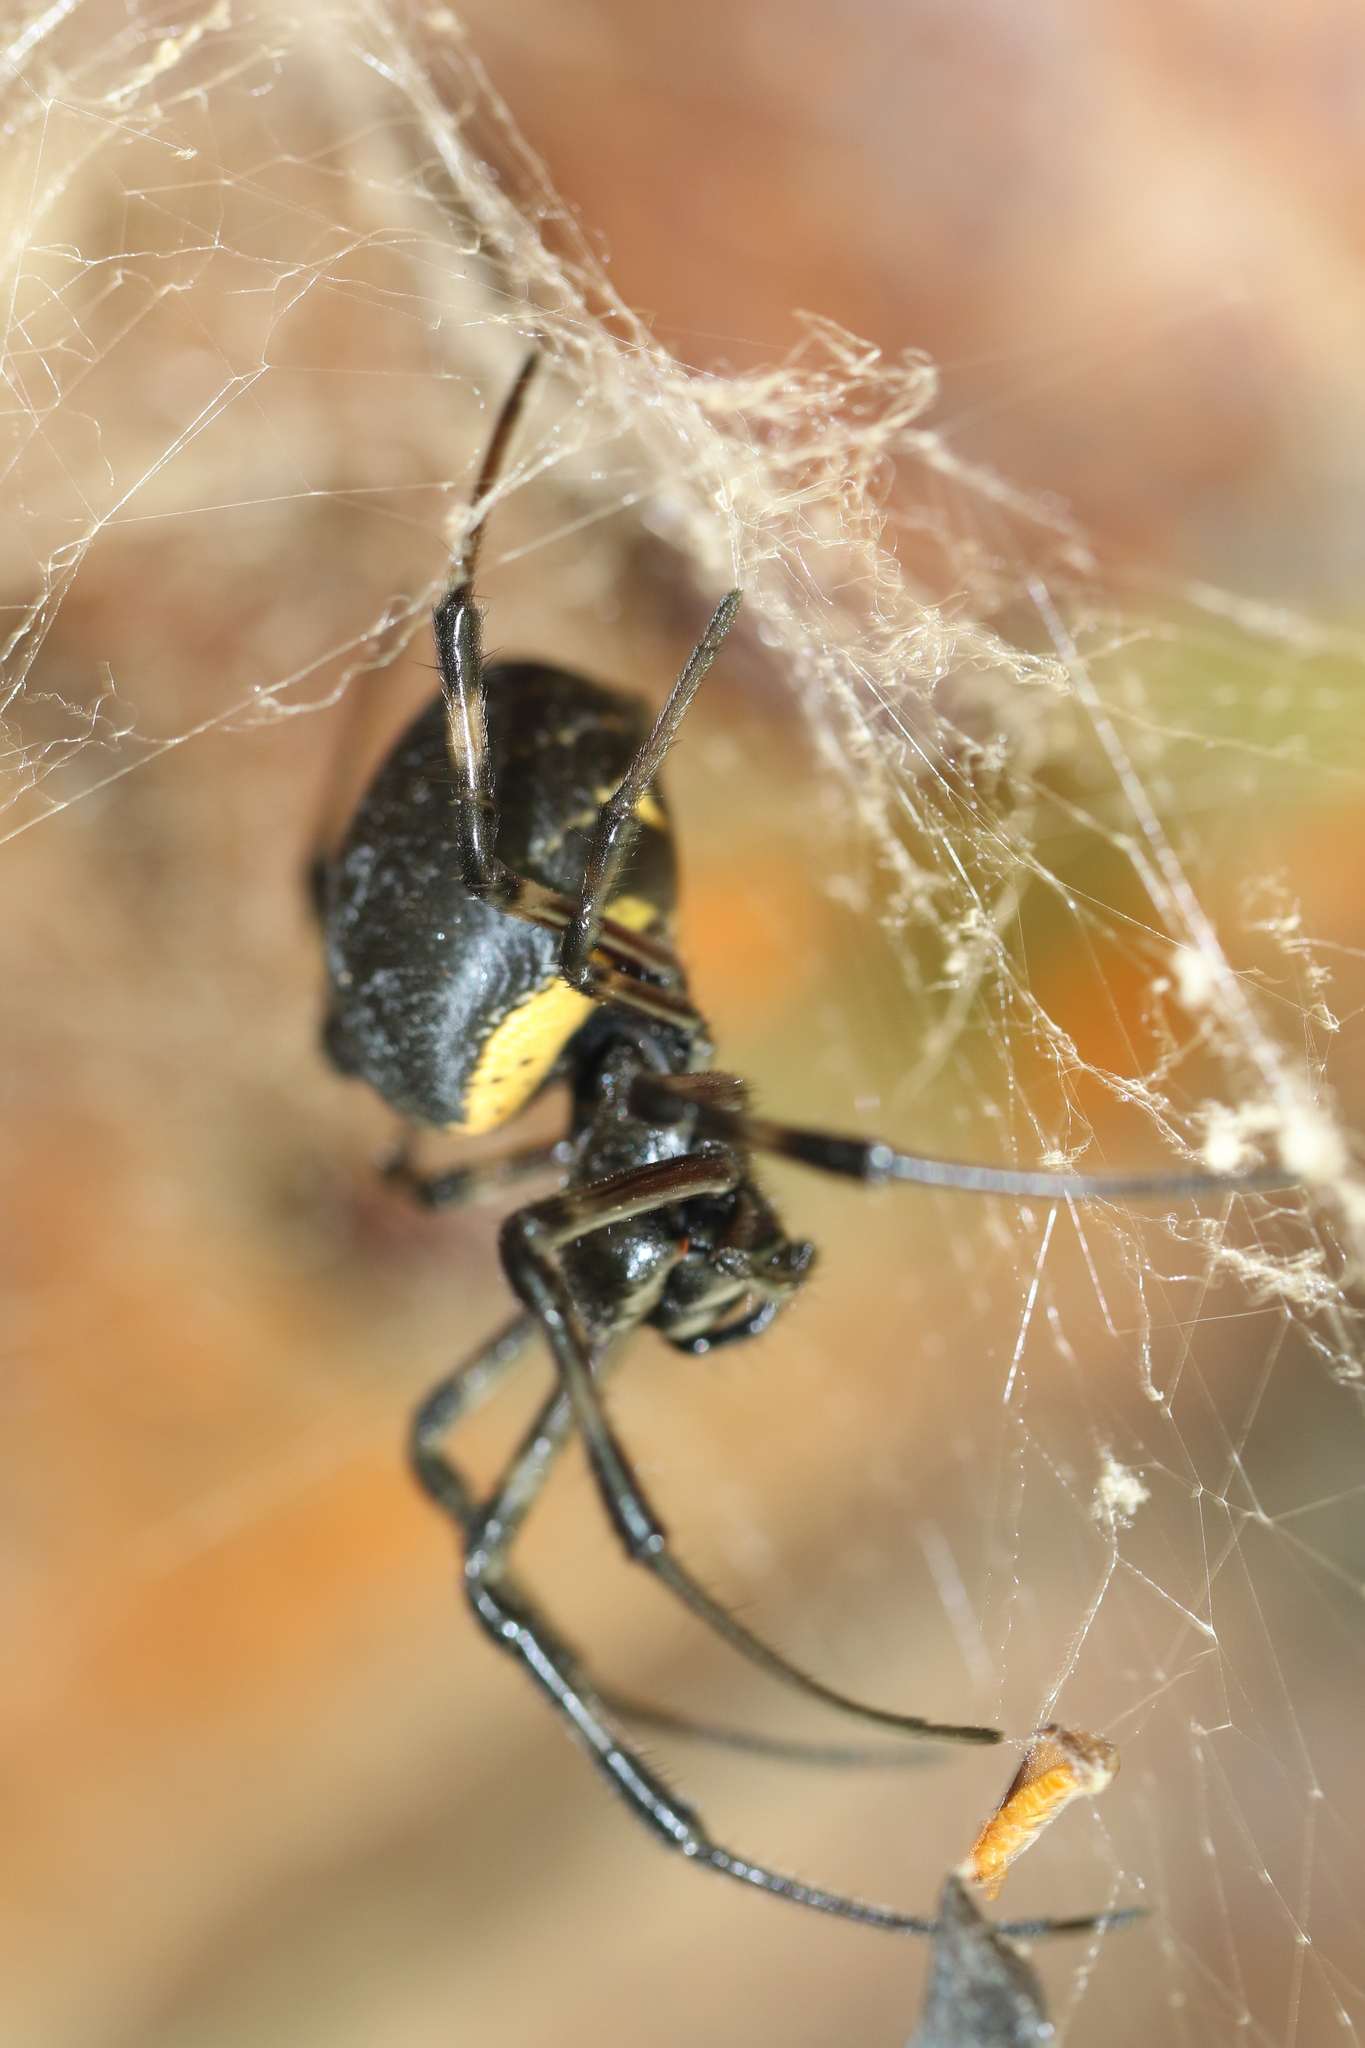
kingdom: Animalia
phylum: Arthropoda
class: Arachnida
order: Araneae
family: Araneidae
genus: Nephilingis
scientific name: Nephilingis cruentata
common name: African hermit spider
